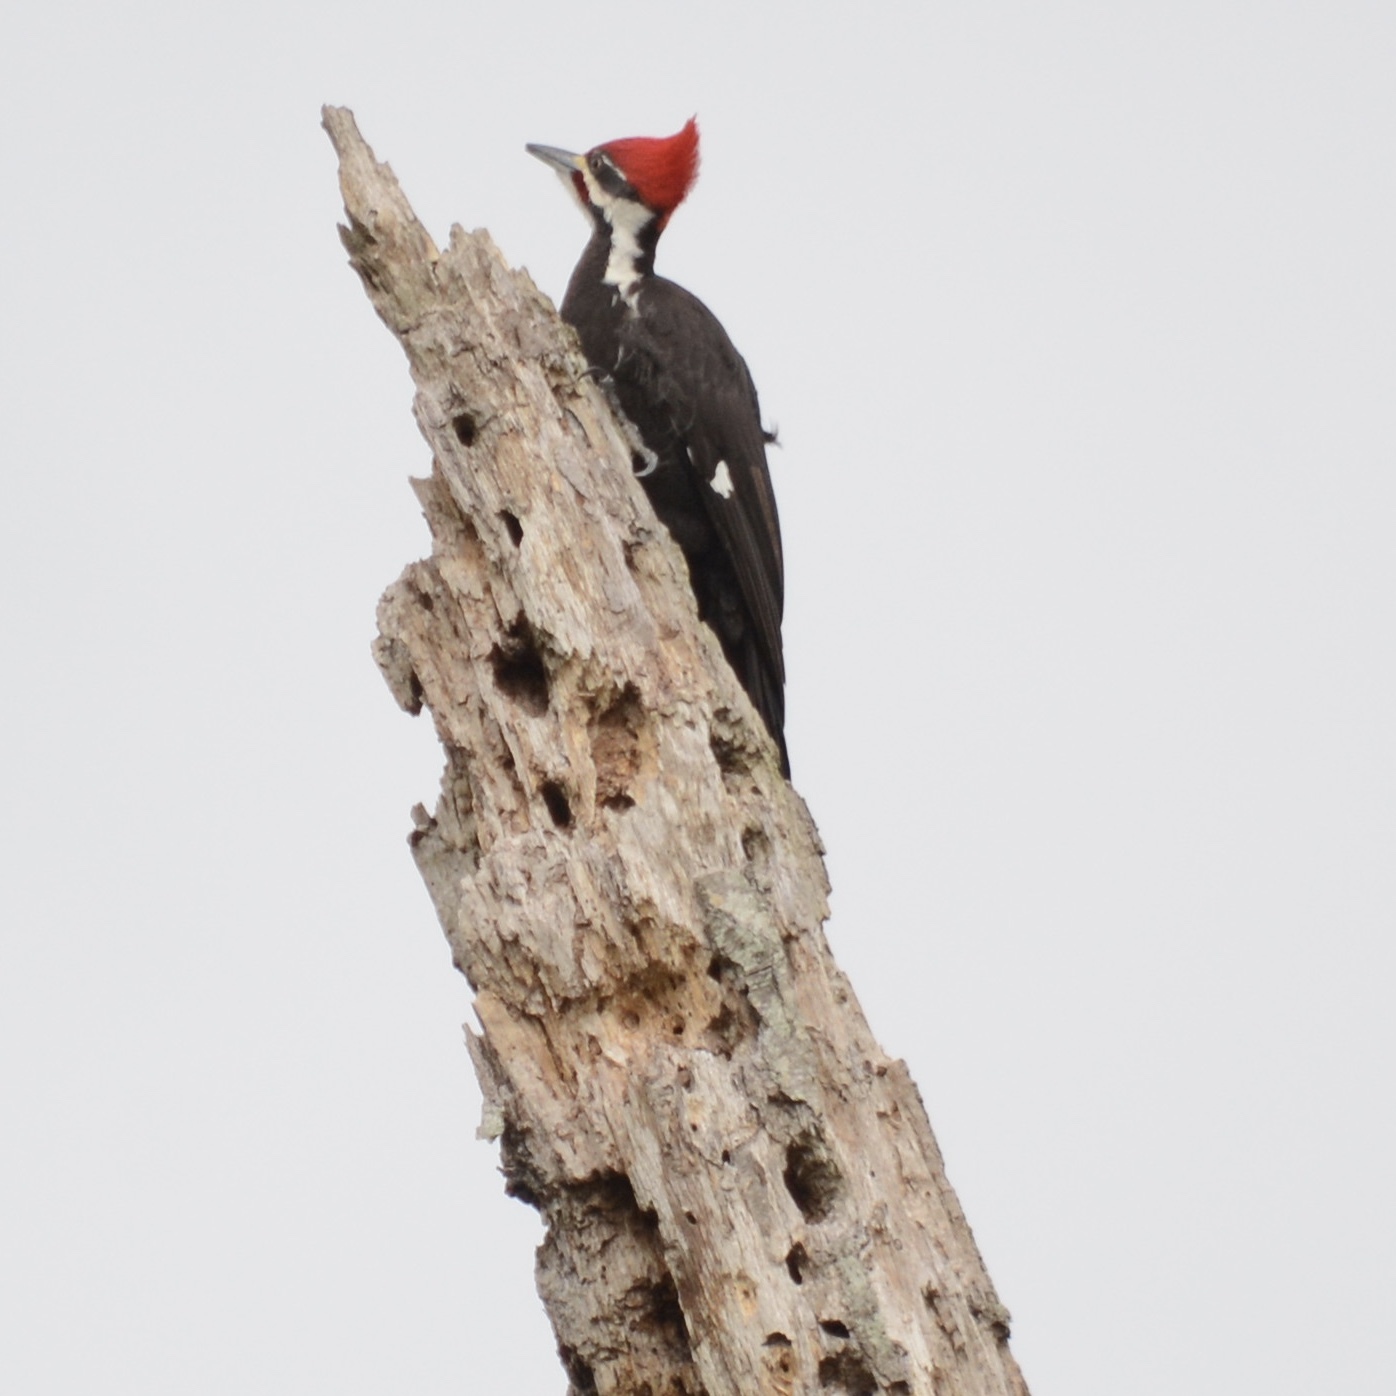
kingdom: Animalia
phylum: Chordata
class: Aves
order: Piciformes
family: Picidae
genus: Dryocopus
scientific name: Dryocopus pileatus
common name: Pileated woodpecker
